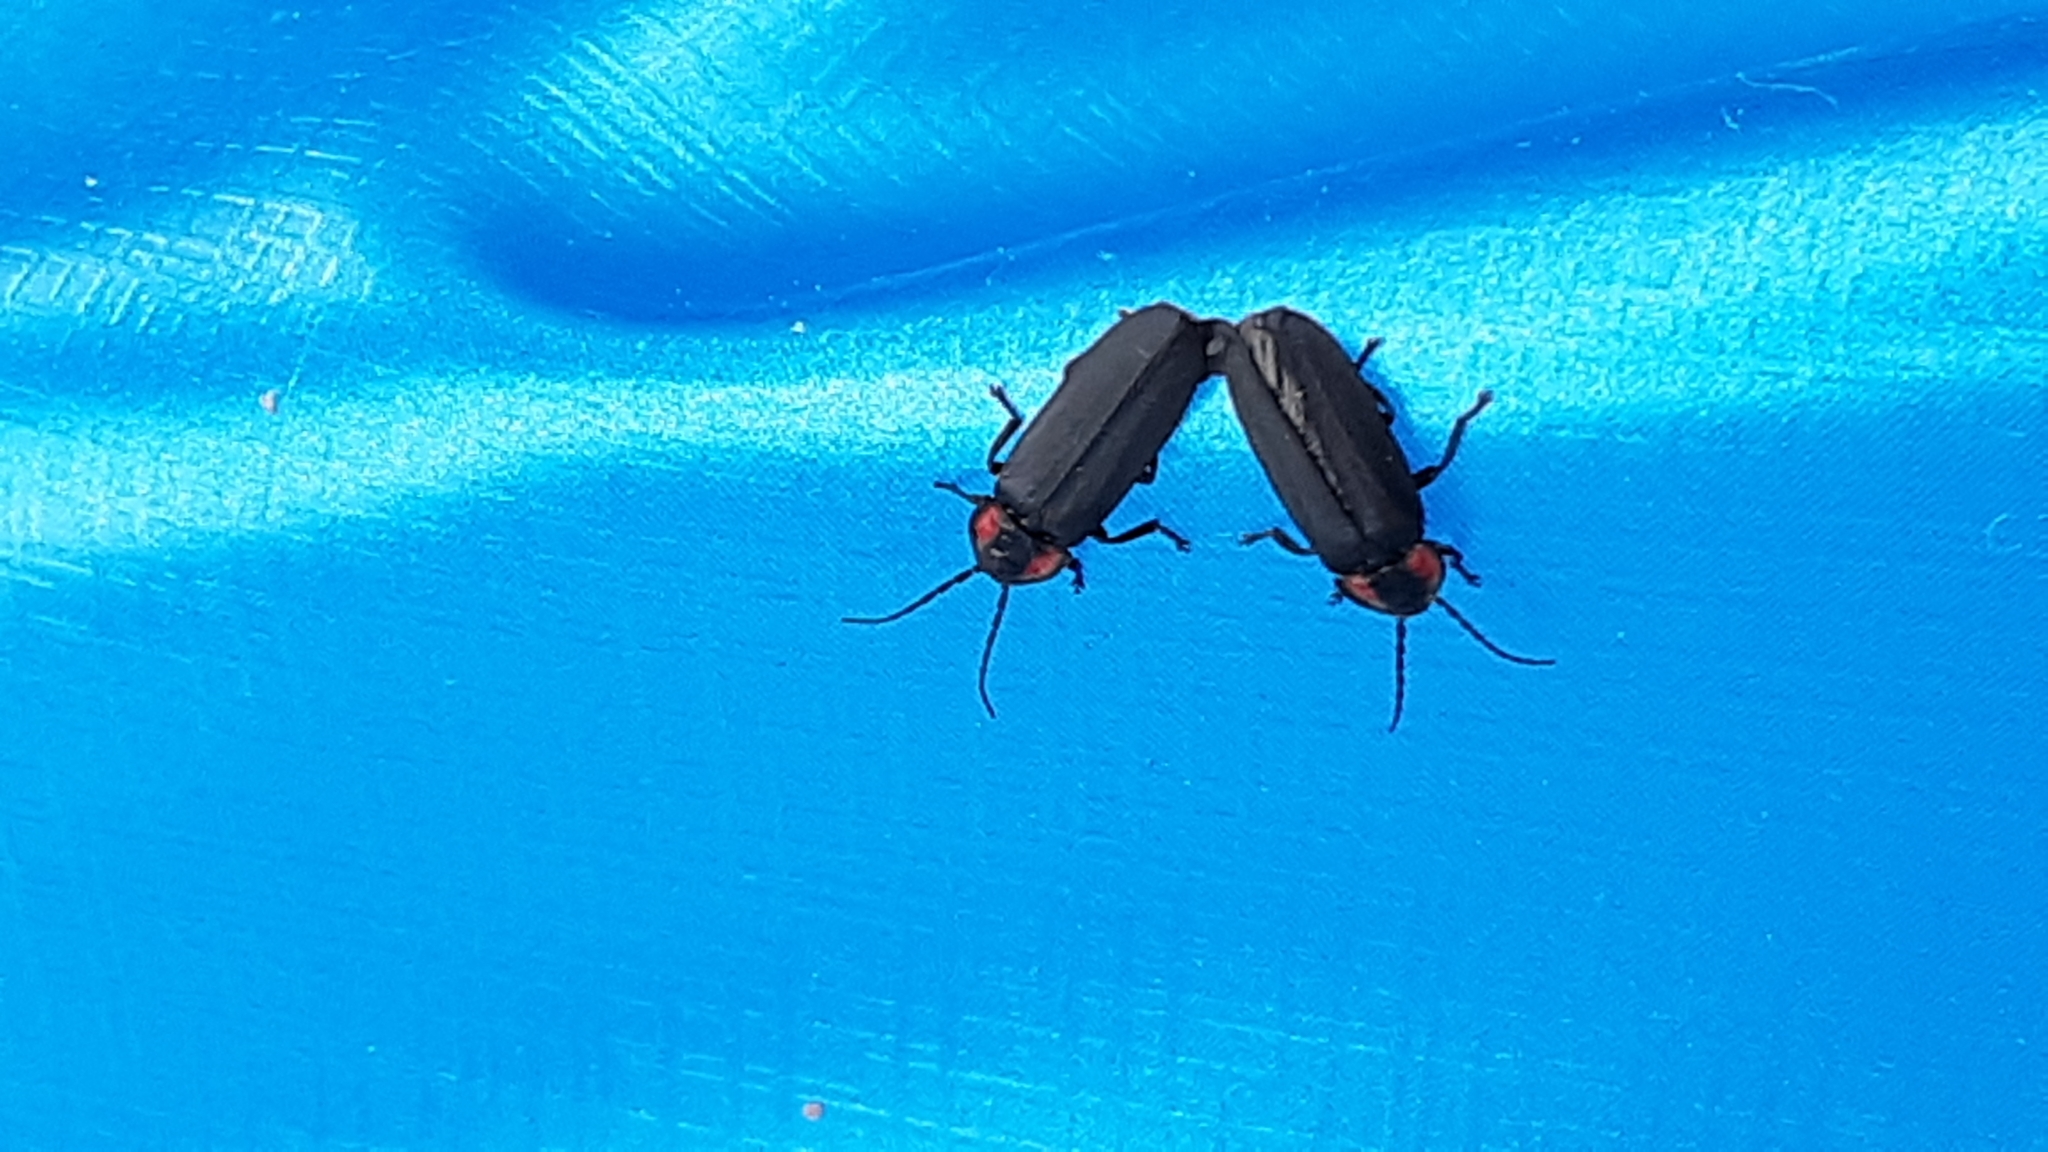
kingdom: Animalia
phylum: Arthropoda
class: Insecta
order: Coleoptera
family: Lampyridae
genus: Pyropyga
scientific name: Pyropyga nigricans
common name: Dark firefly
